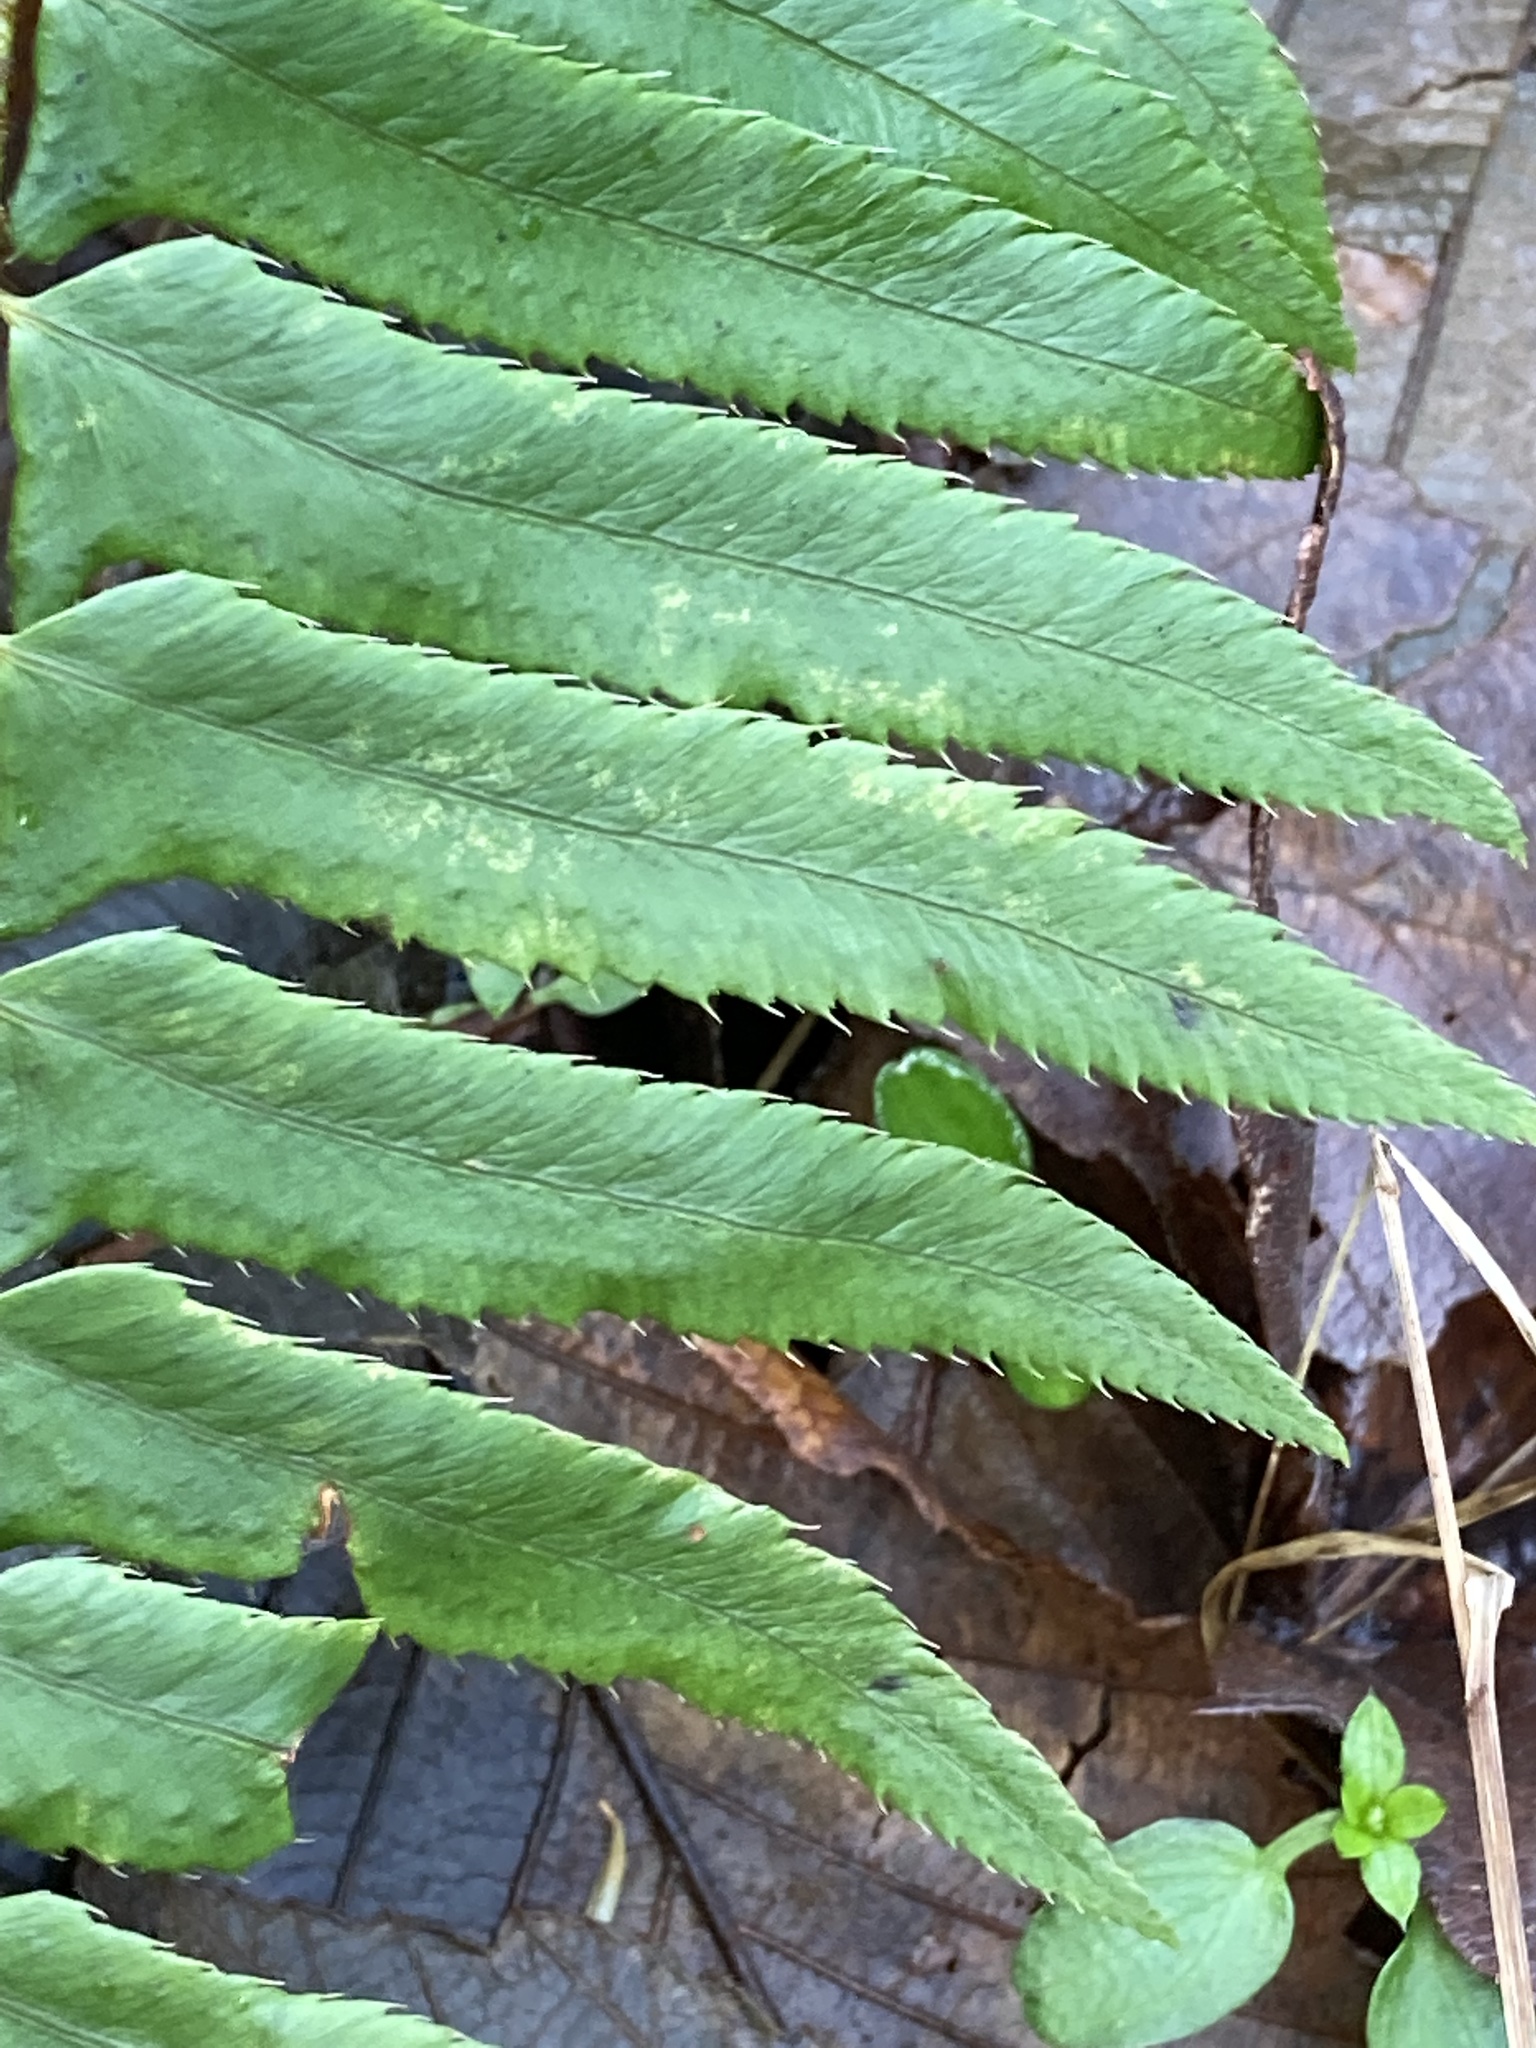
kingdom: Plantae
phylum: Tracheophyta
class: Polypodiopsida
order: Polypodiales
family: Dryopteridaceae
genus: Polystichum
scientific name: Polystichum munitum
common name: Western sword-fern
